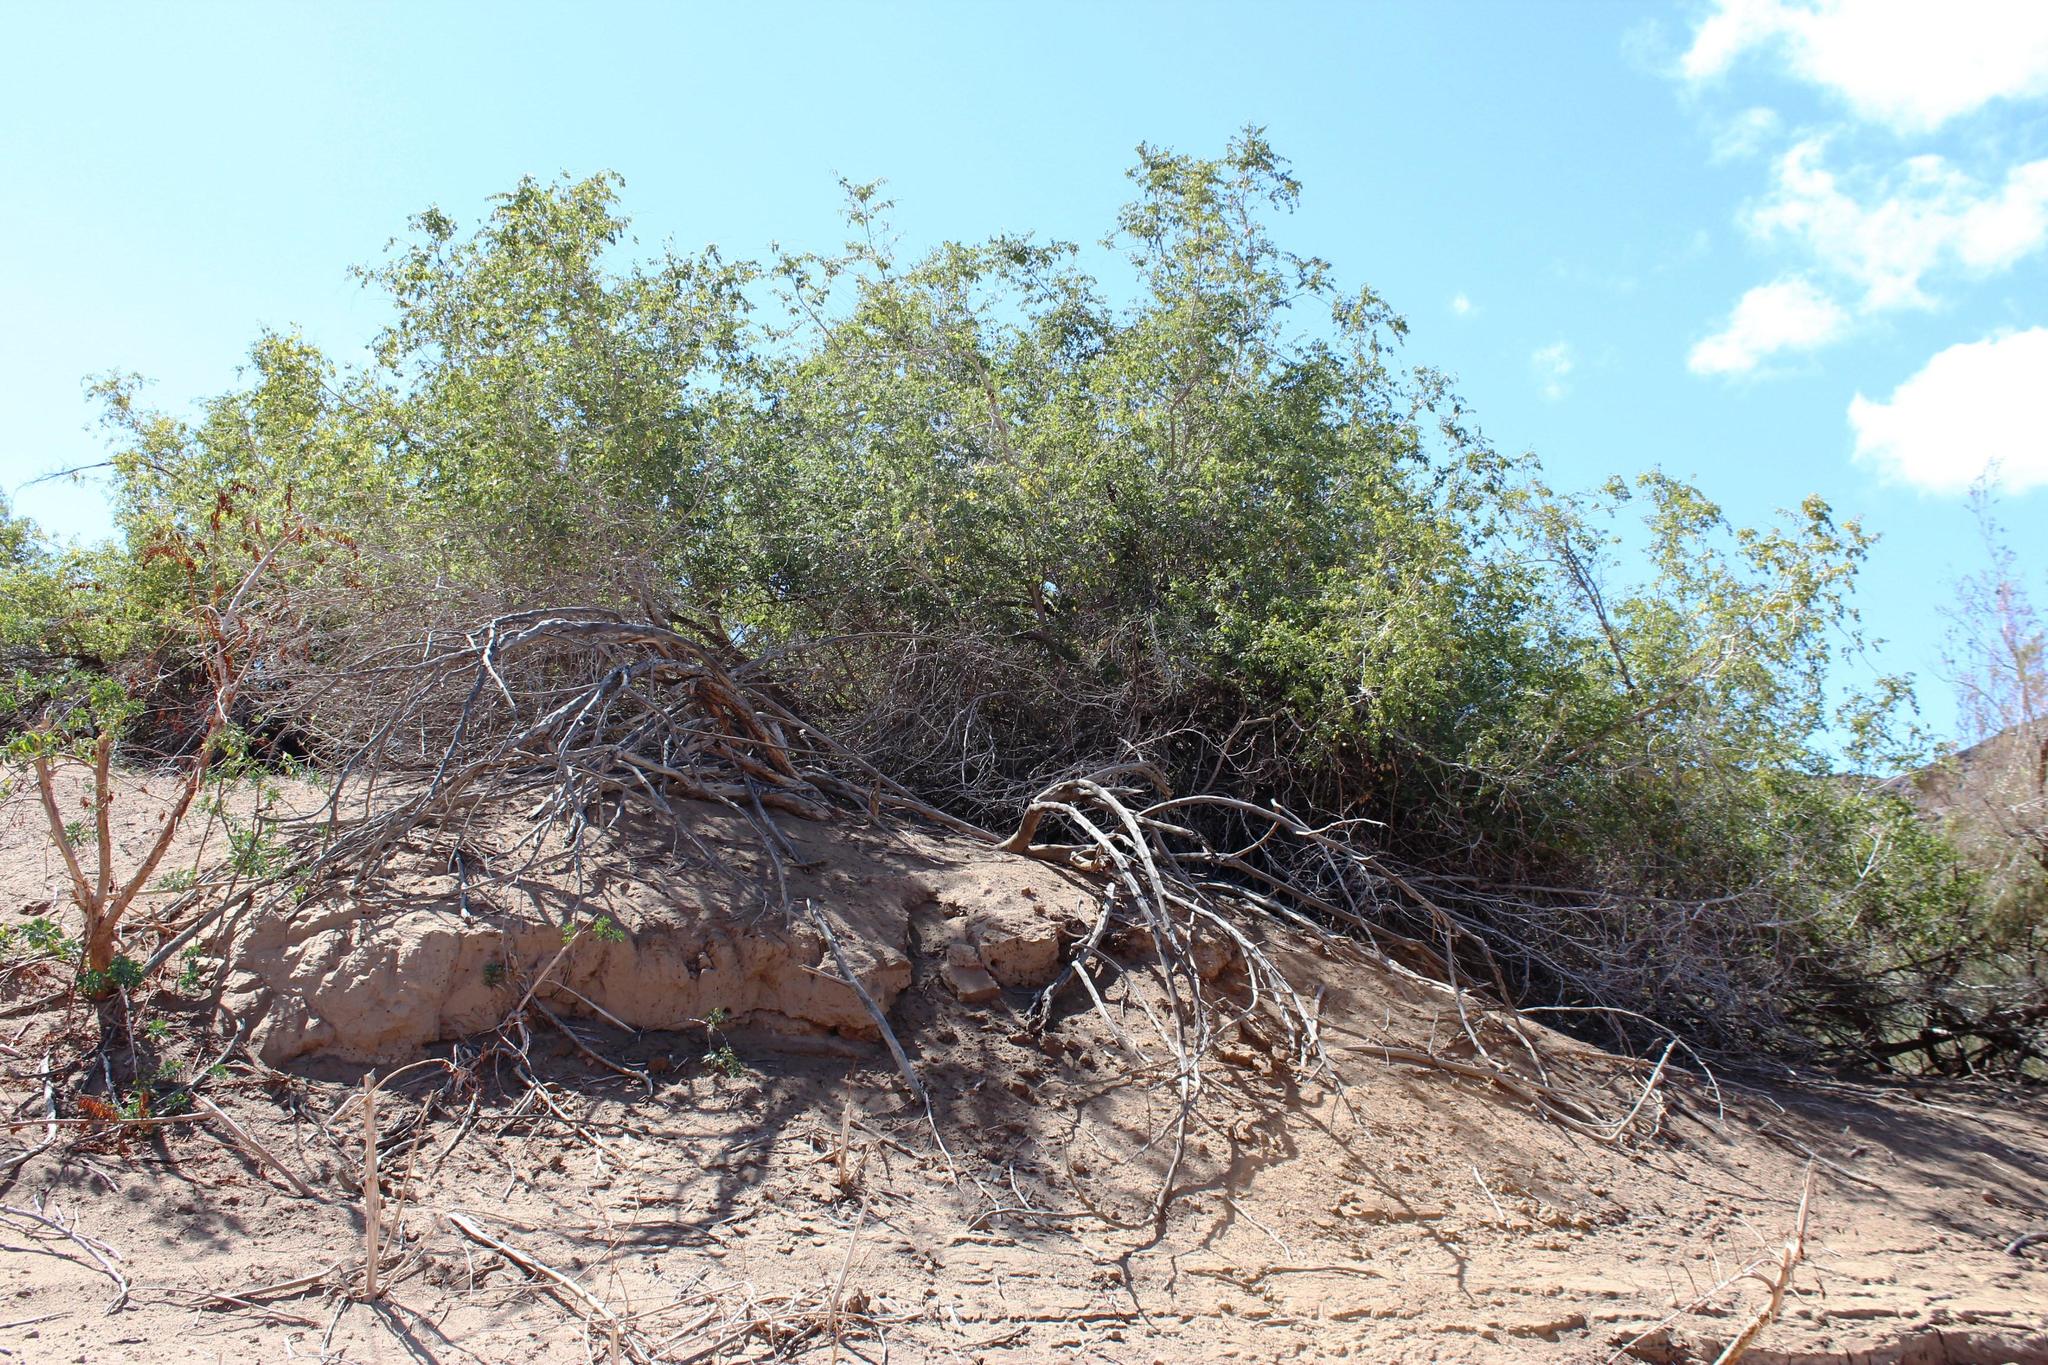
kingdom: Plantae
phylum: Tracheophyta
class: Magnoliopsida
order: Sapindales
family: Anacardiaceae
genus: Searsia
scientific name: Searsia pendulina
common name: White karee
